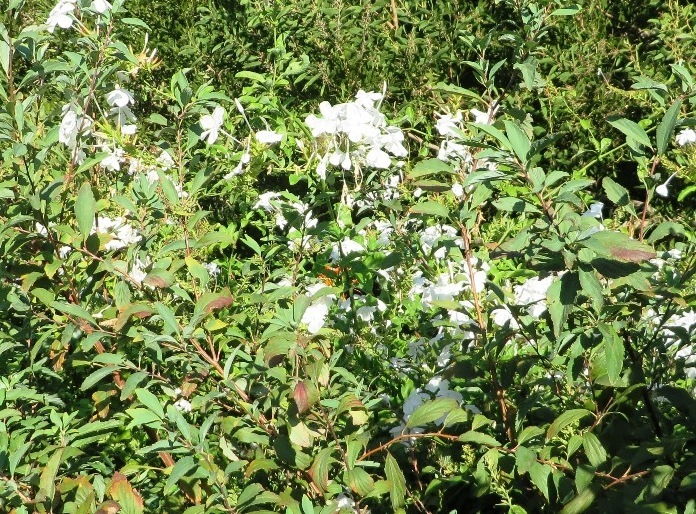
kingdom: Plantae
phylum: Tracheophyta
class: Magnoliopsida
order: Caryophyllales
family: Plumbaginaceae
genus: Plumbago
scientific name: Plumbago auriculata
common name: Cape leadwort
